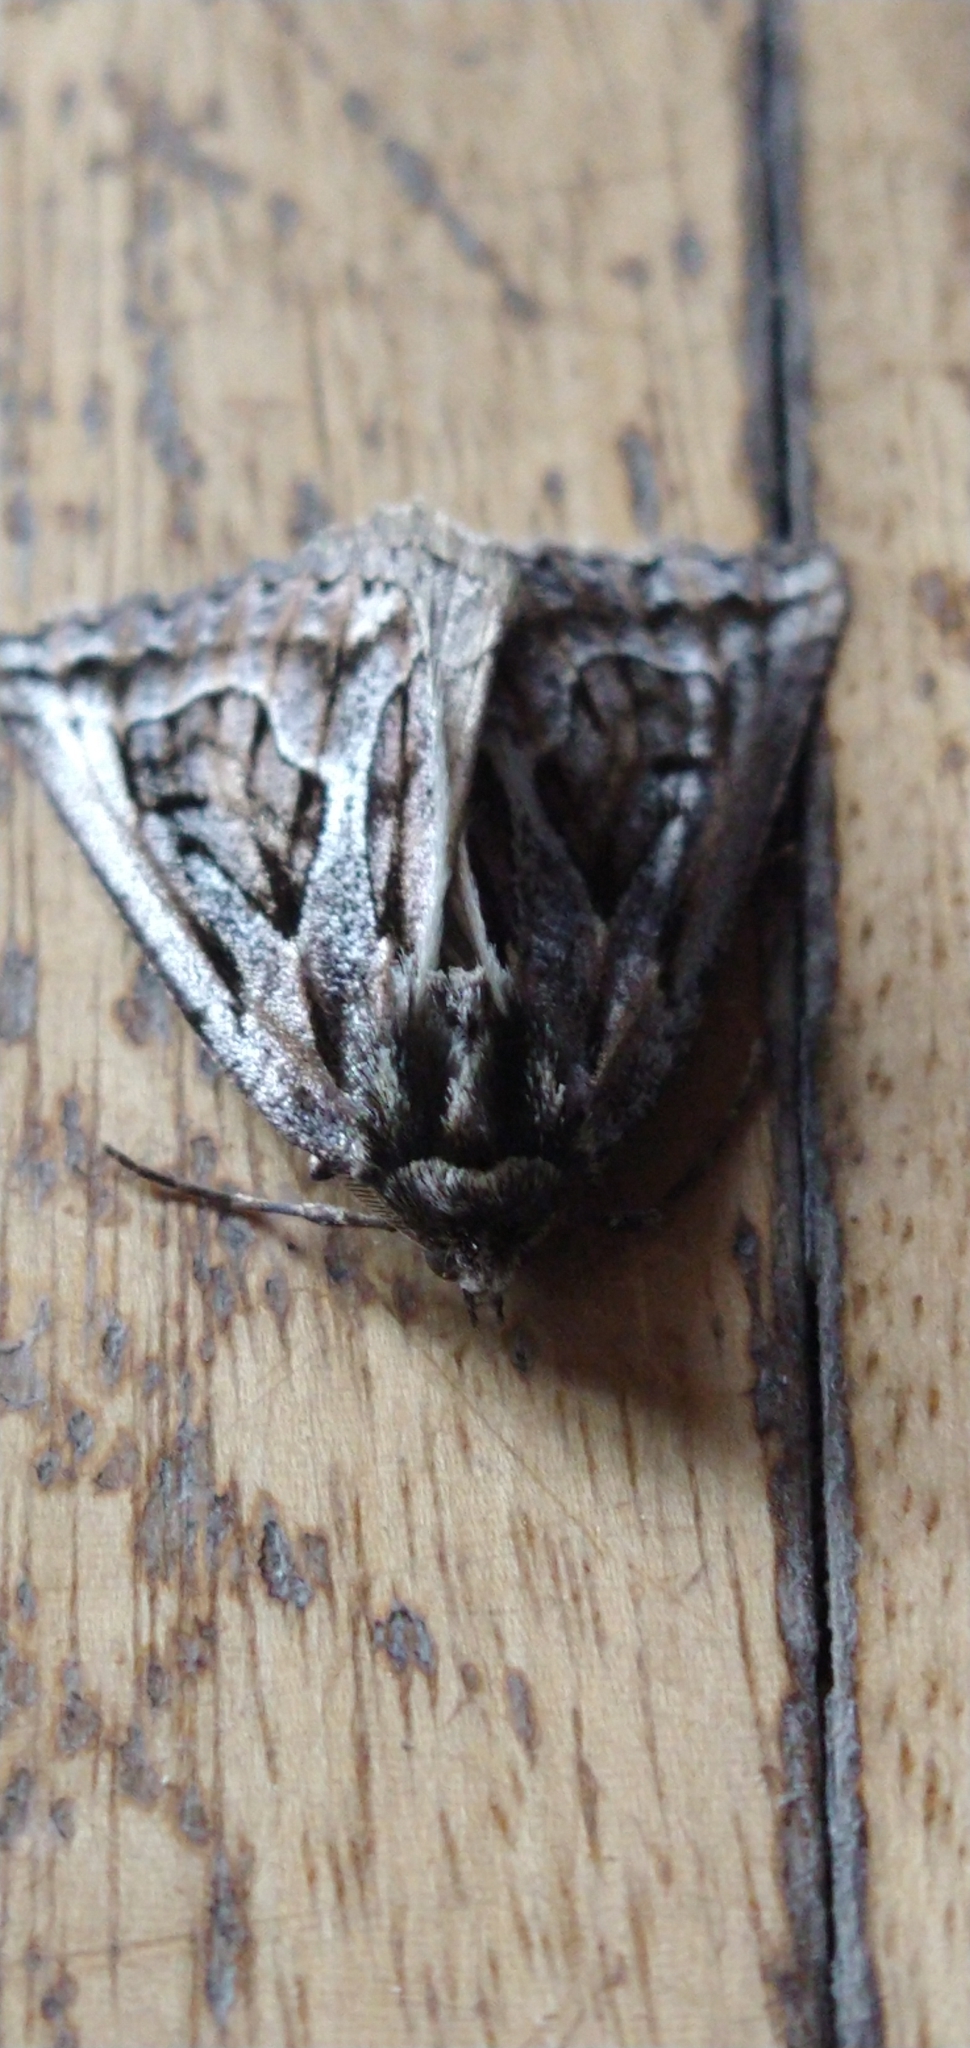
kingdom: Animalia
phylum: Arthropoda
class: Insecta
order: Lepidoptera
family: Geometridae
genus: Pseudaleucis
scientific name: Pseudaleucis
